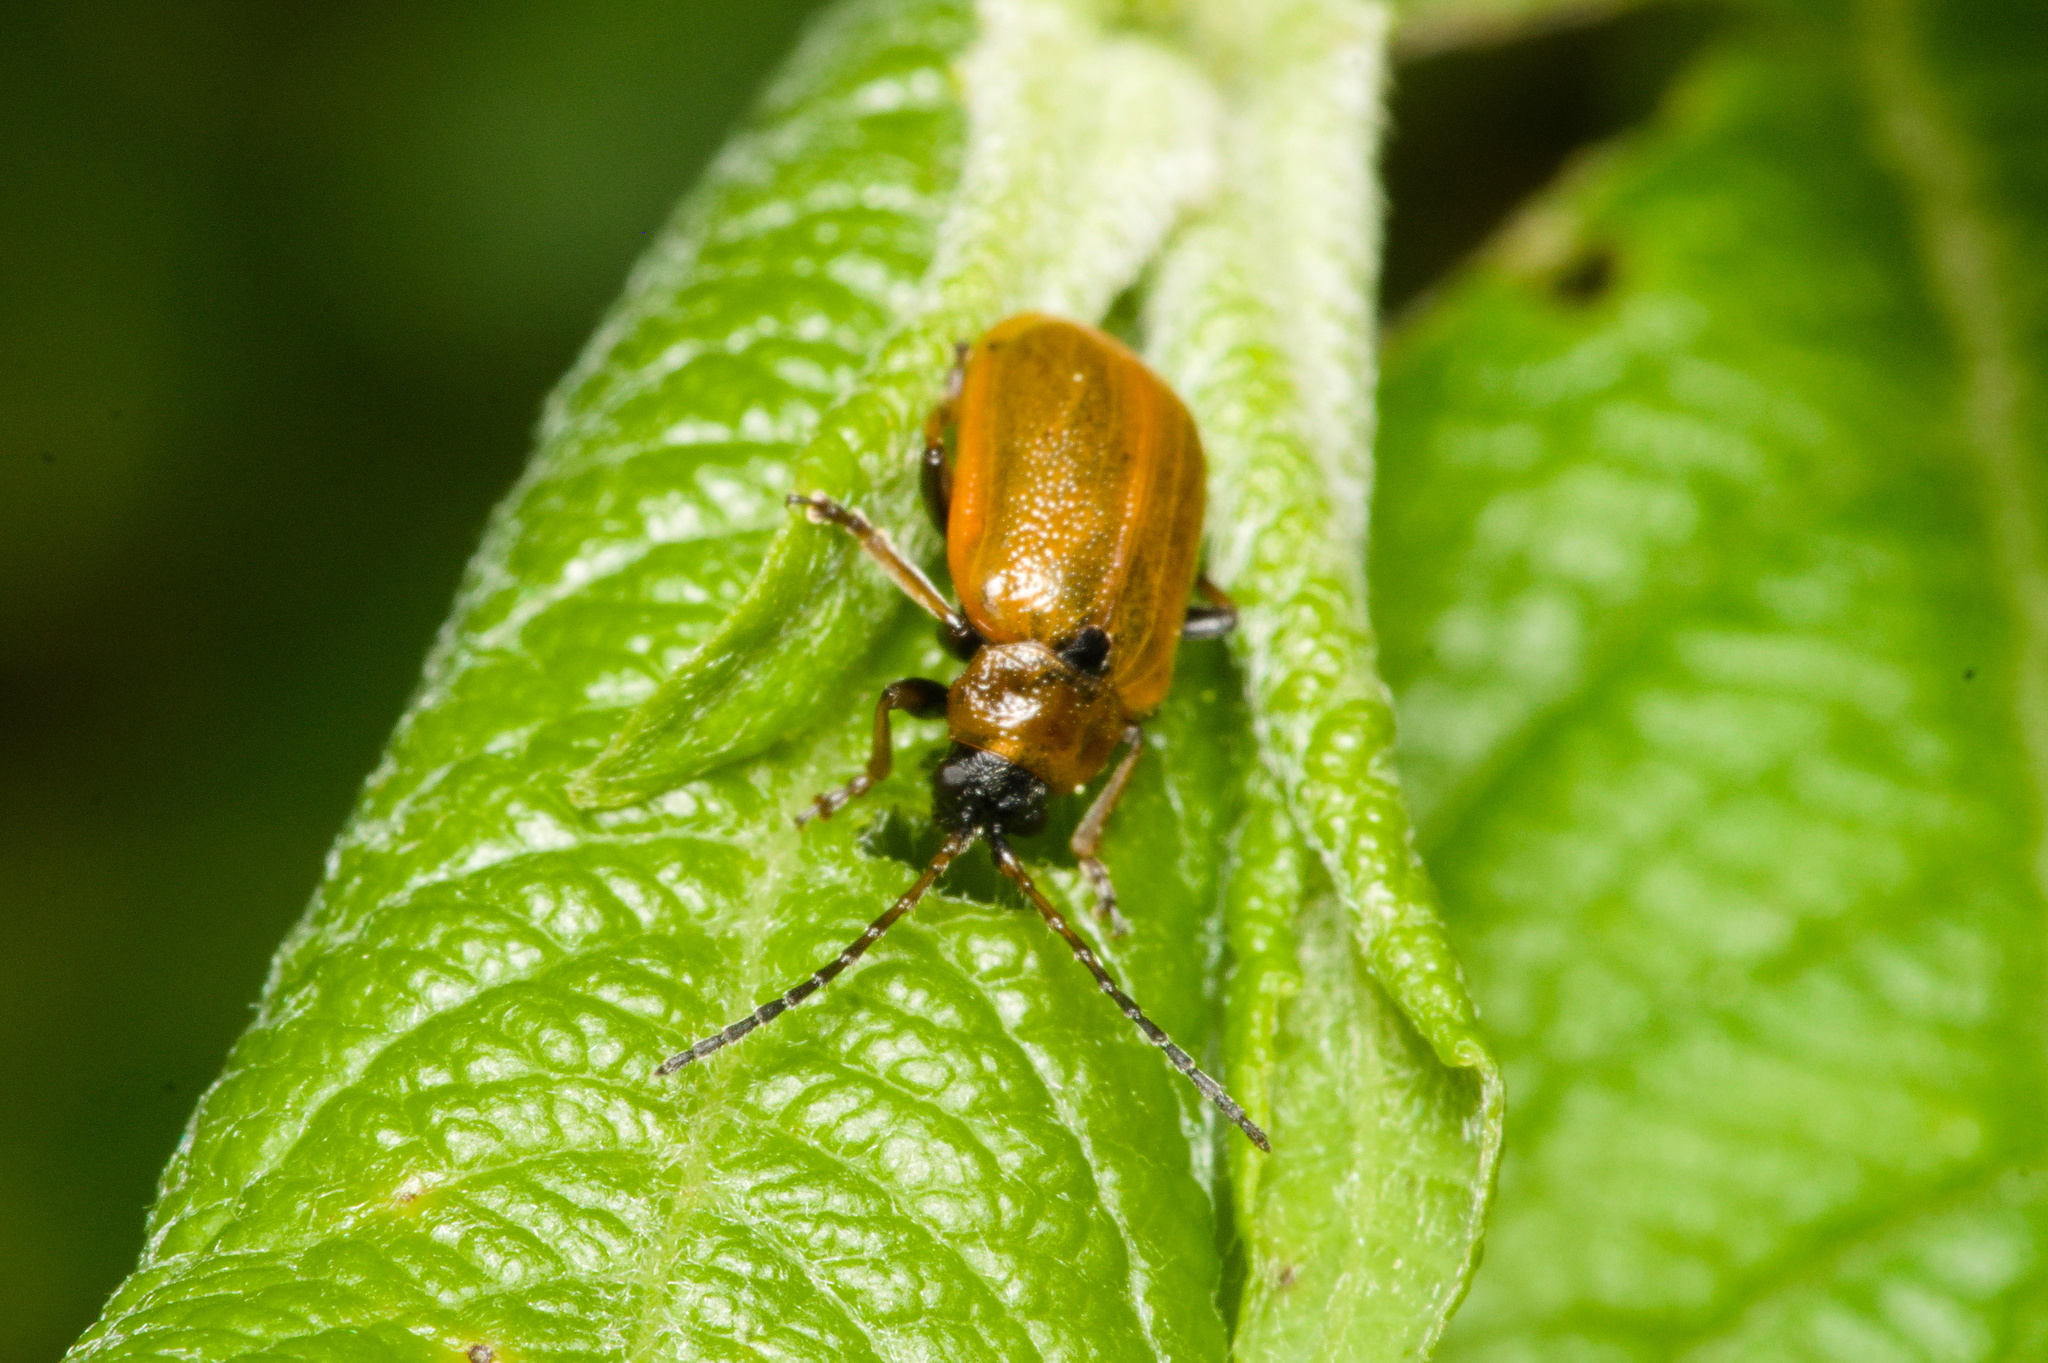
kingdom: Animalia
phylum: Arthropoda
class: Insecta
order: Coleoptera
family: Chrysomelidae
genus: Lochmaea
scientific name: Lochmaea caprea
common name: Willow leaf beetle
